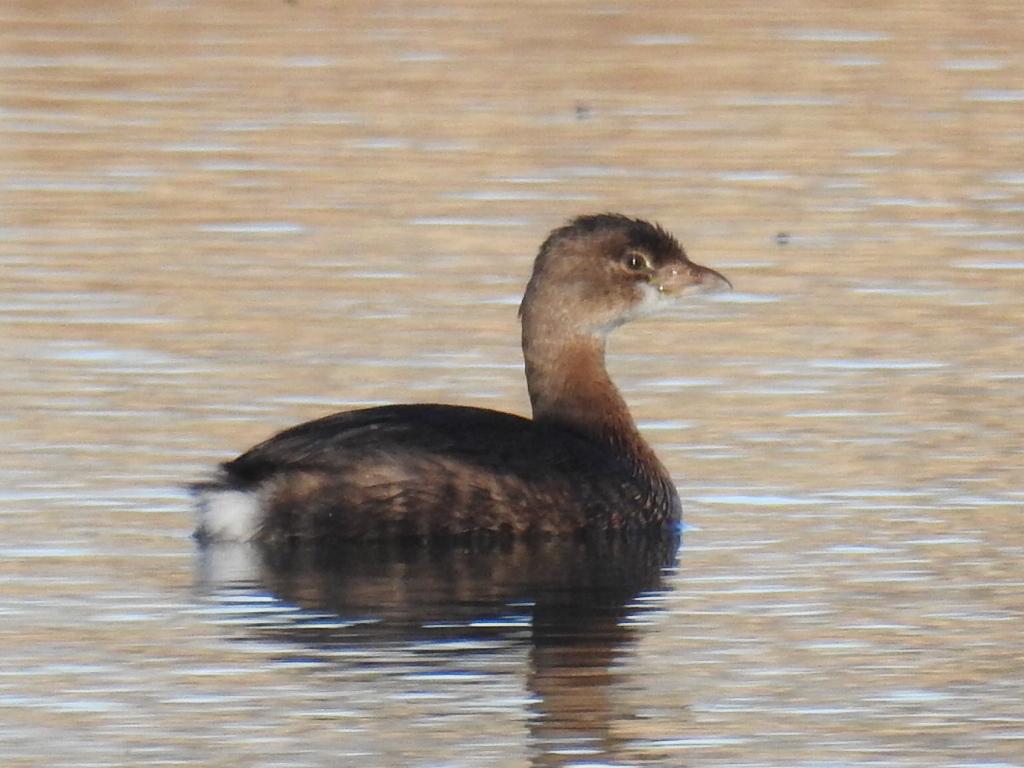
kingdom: Animalia
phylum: Chordata
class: Aves
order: Podicipediformes
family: Podicipedidae
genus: Podilymbus
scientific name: Podilymbus podiceps
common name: Pied-billed grebe
